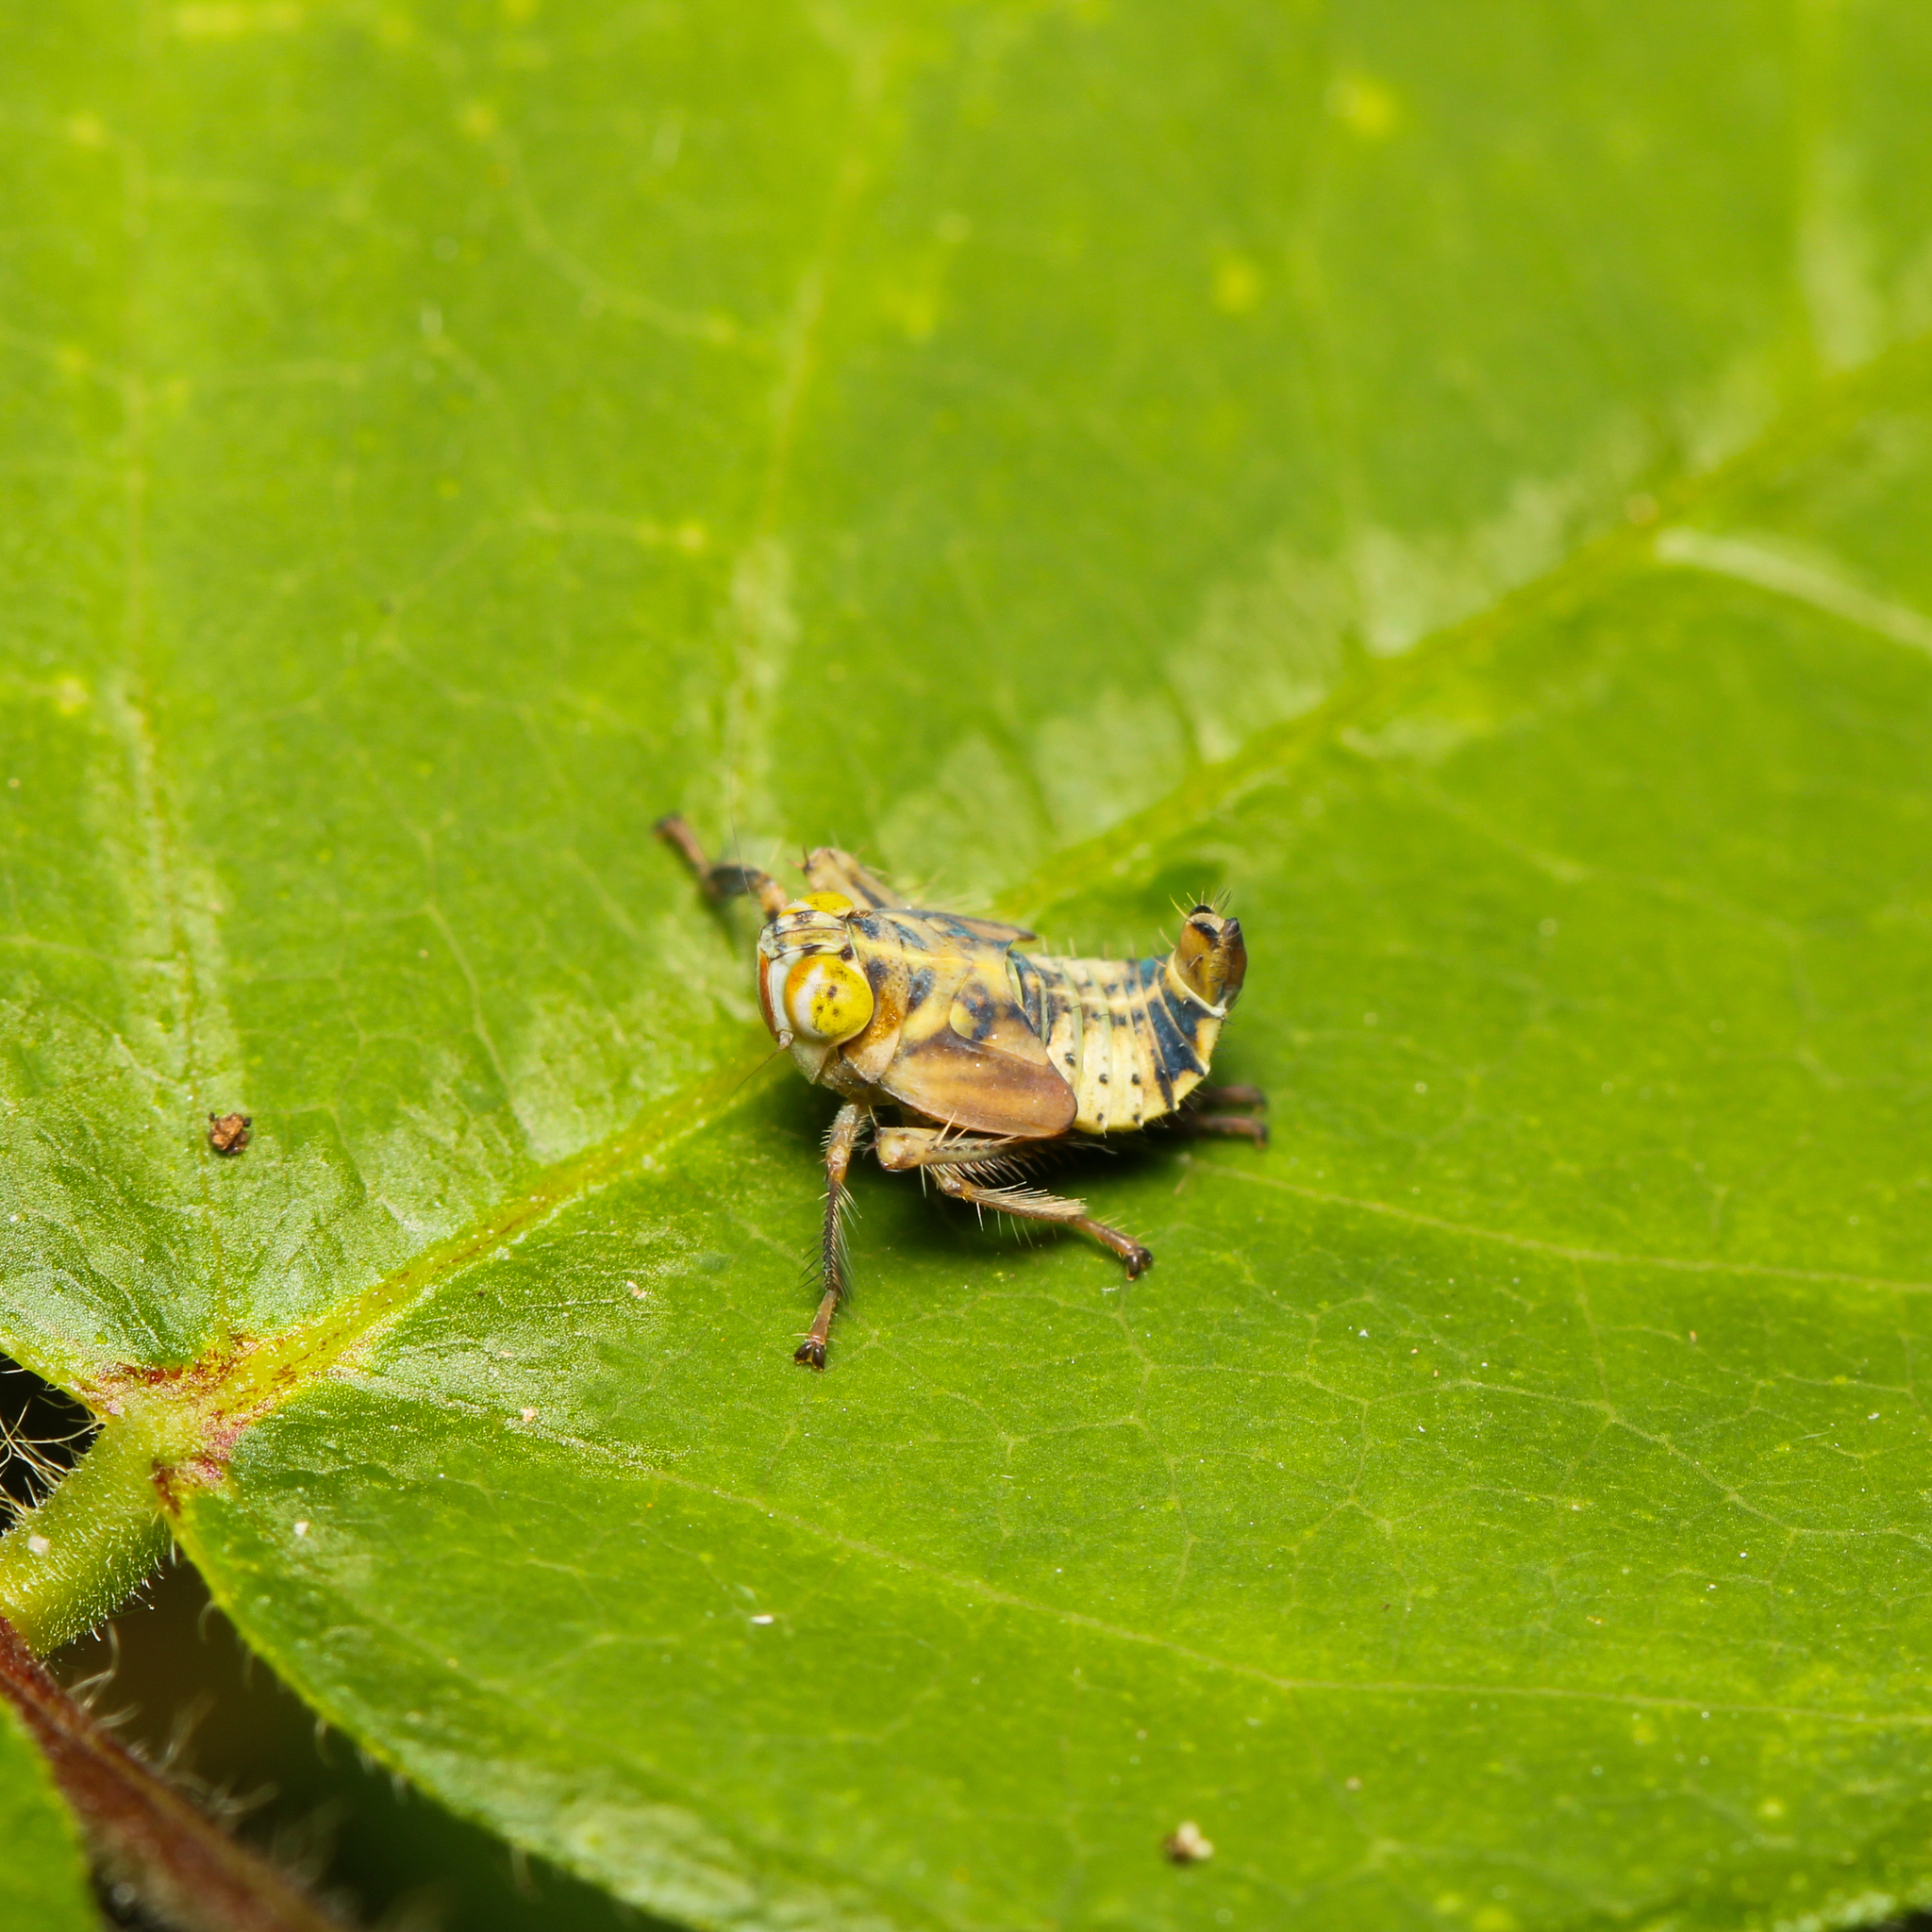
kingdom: Animalia
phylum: Arthropoda
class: Insecta
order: Hemiptera
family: Cicadellidae
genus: Jikradia
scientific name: Jikradia olitoria
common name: Coppery leafhopper
